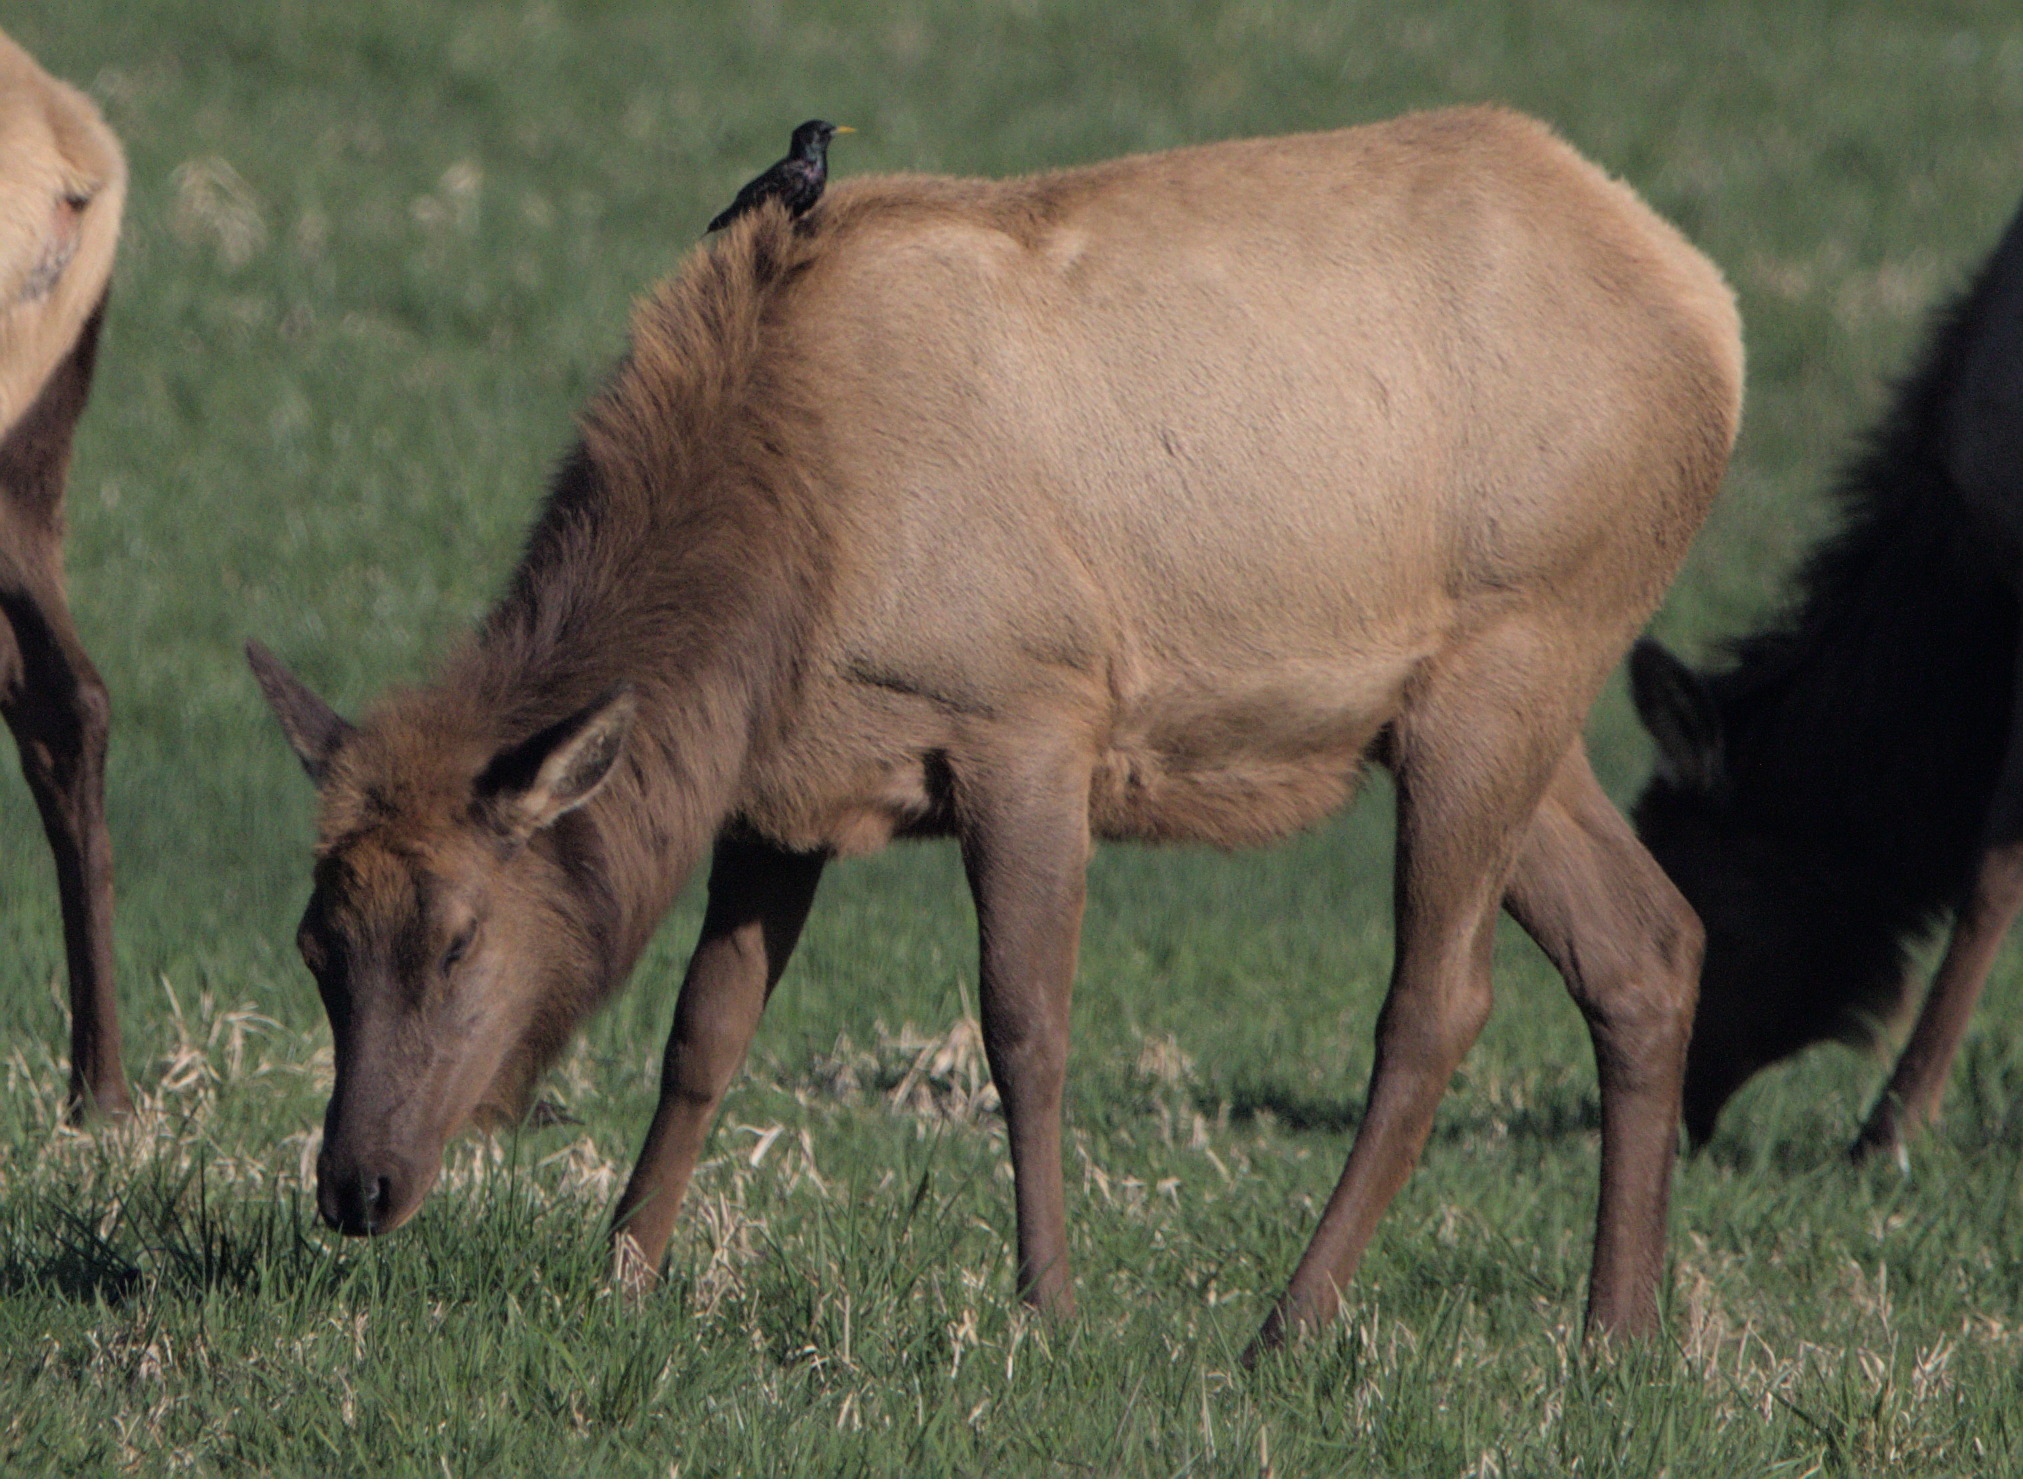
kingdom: Animalia
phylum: Chordata
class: Aves
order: Passeriformes
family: Sturnidae
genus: Sturnus
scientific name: Sturnus vulgaris
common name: Common starling
